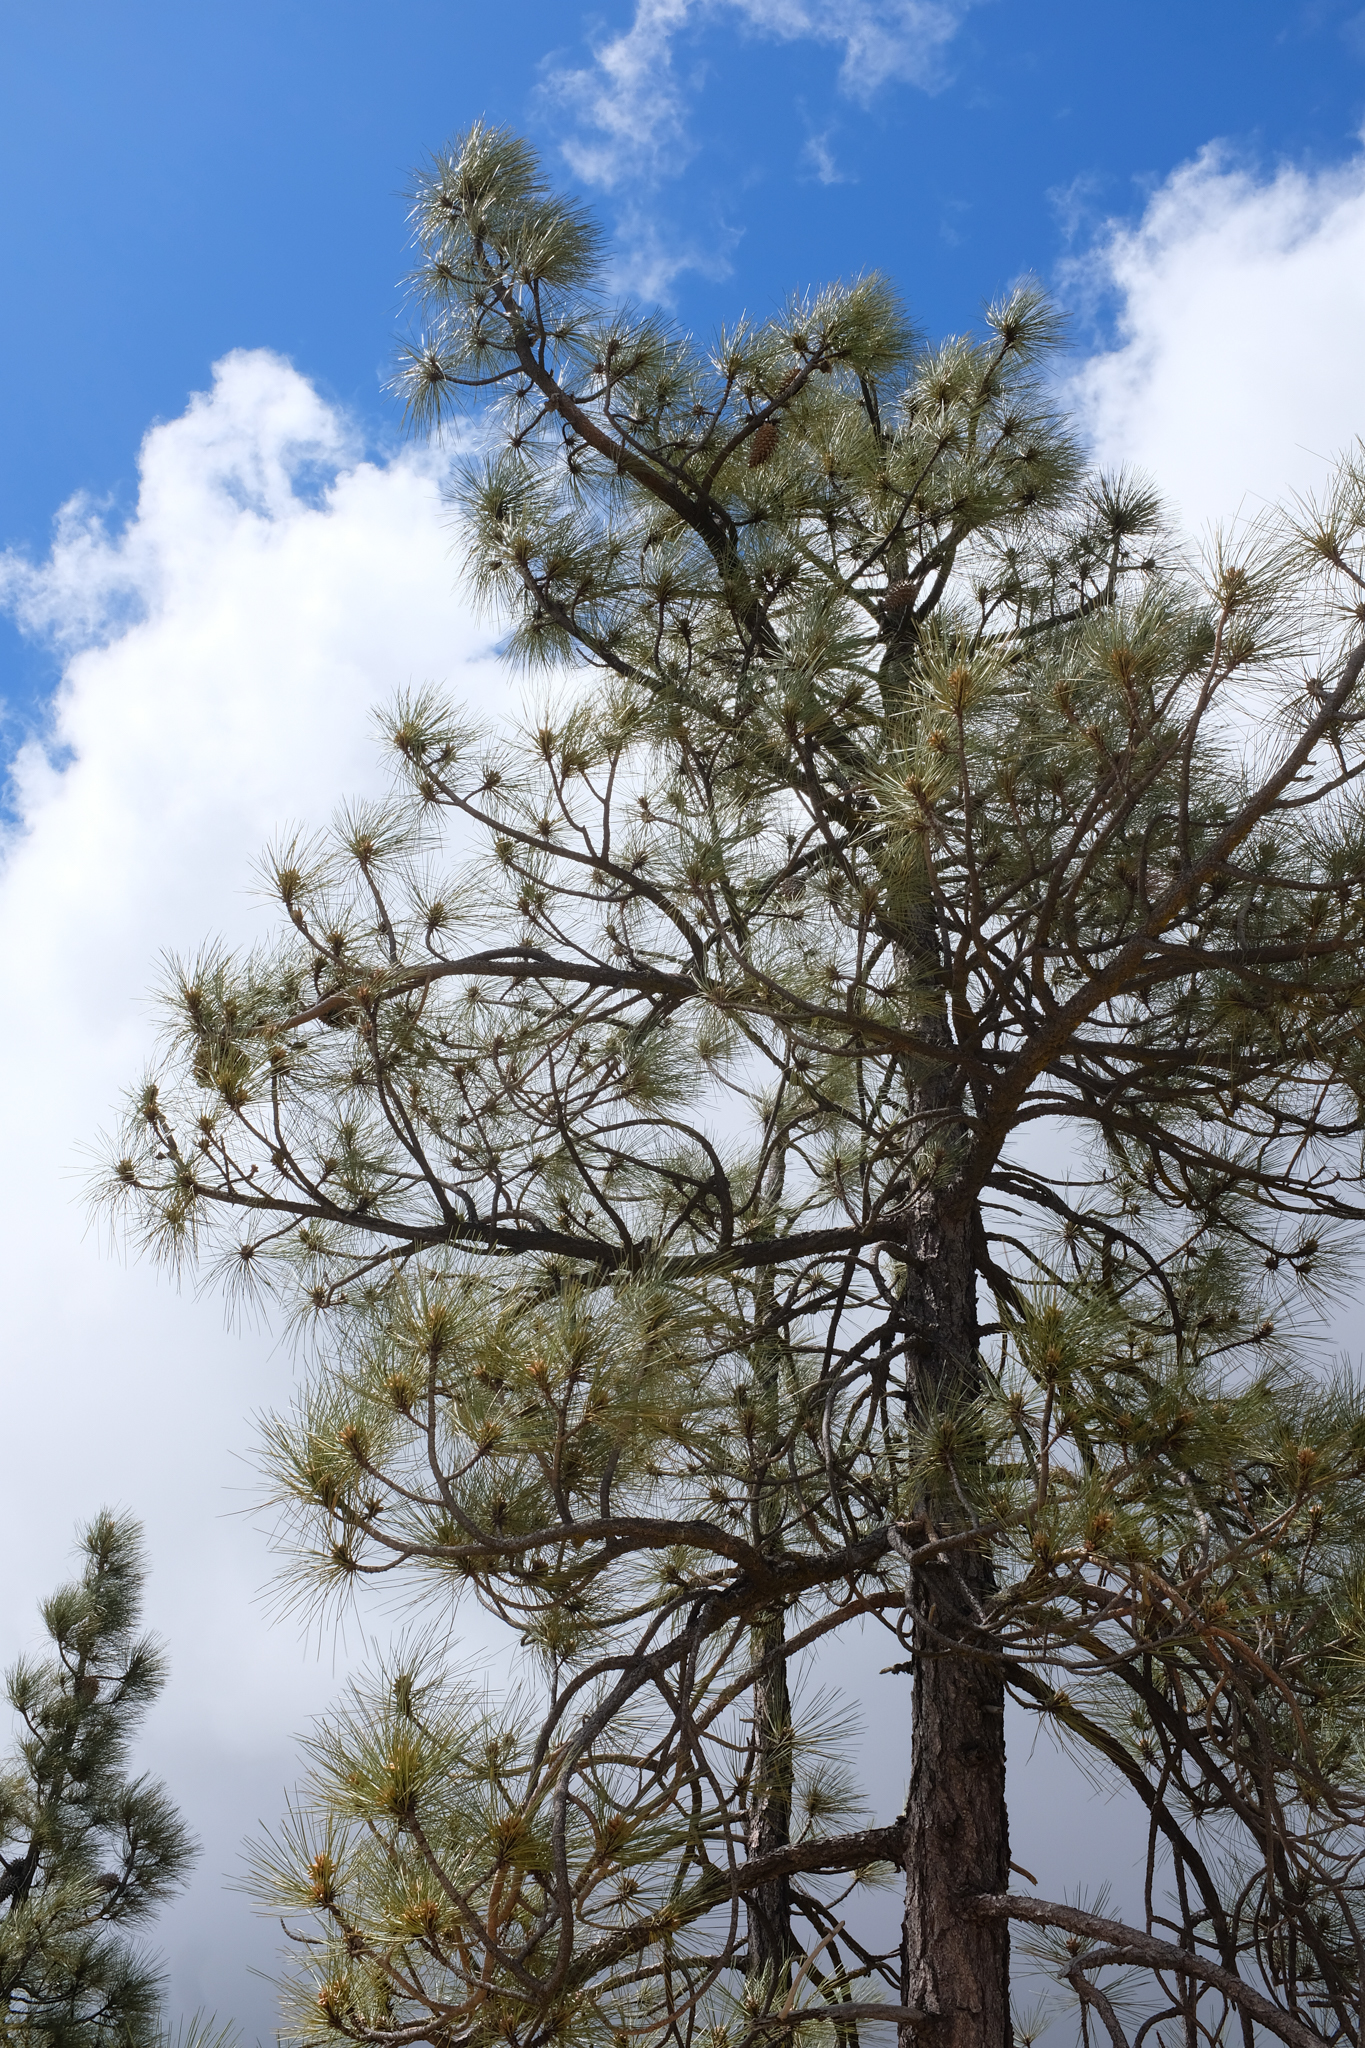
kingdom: Plantae
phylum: Tracheophyta
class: Pinopsida
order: Pinales
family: Pinaceae
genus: Pinus
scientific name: Pinus coulteri
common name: Coulter pine
